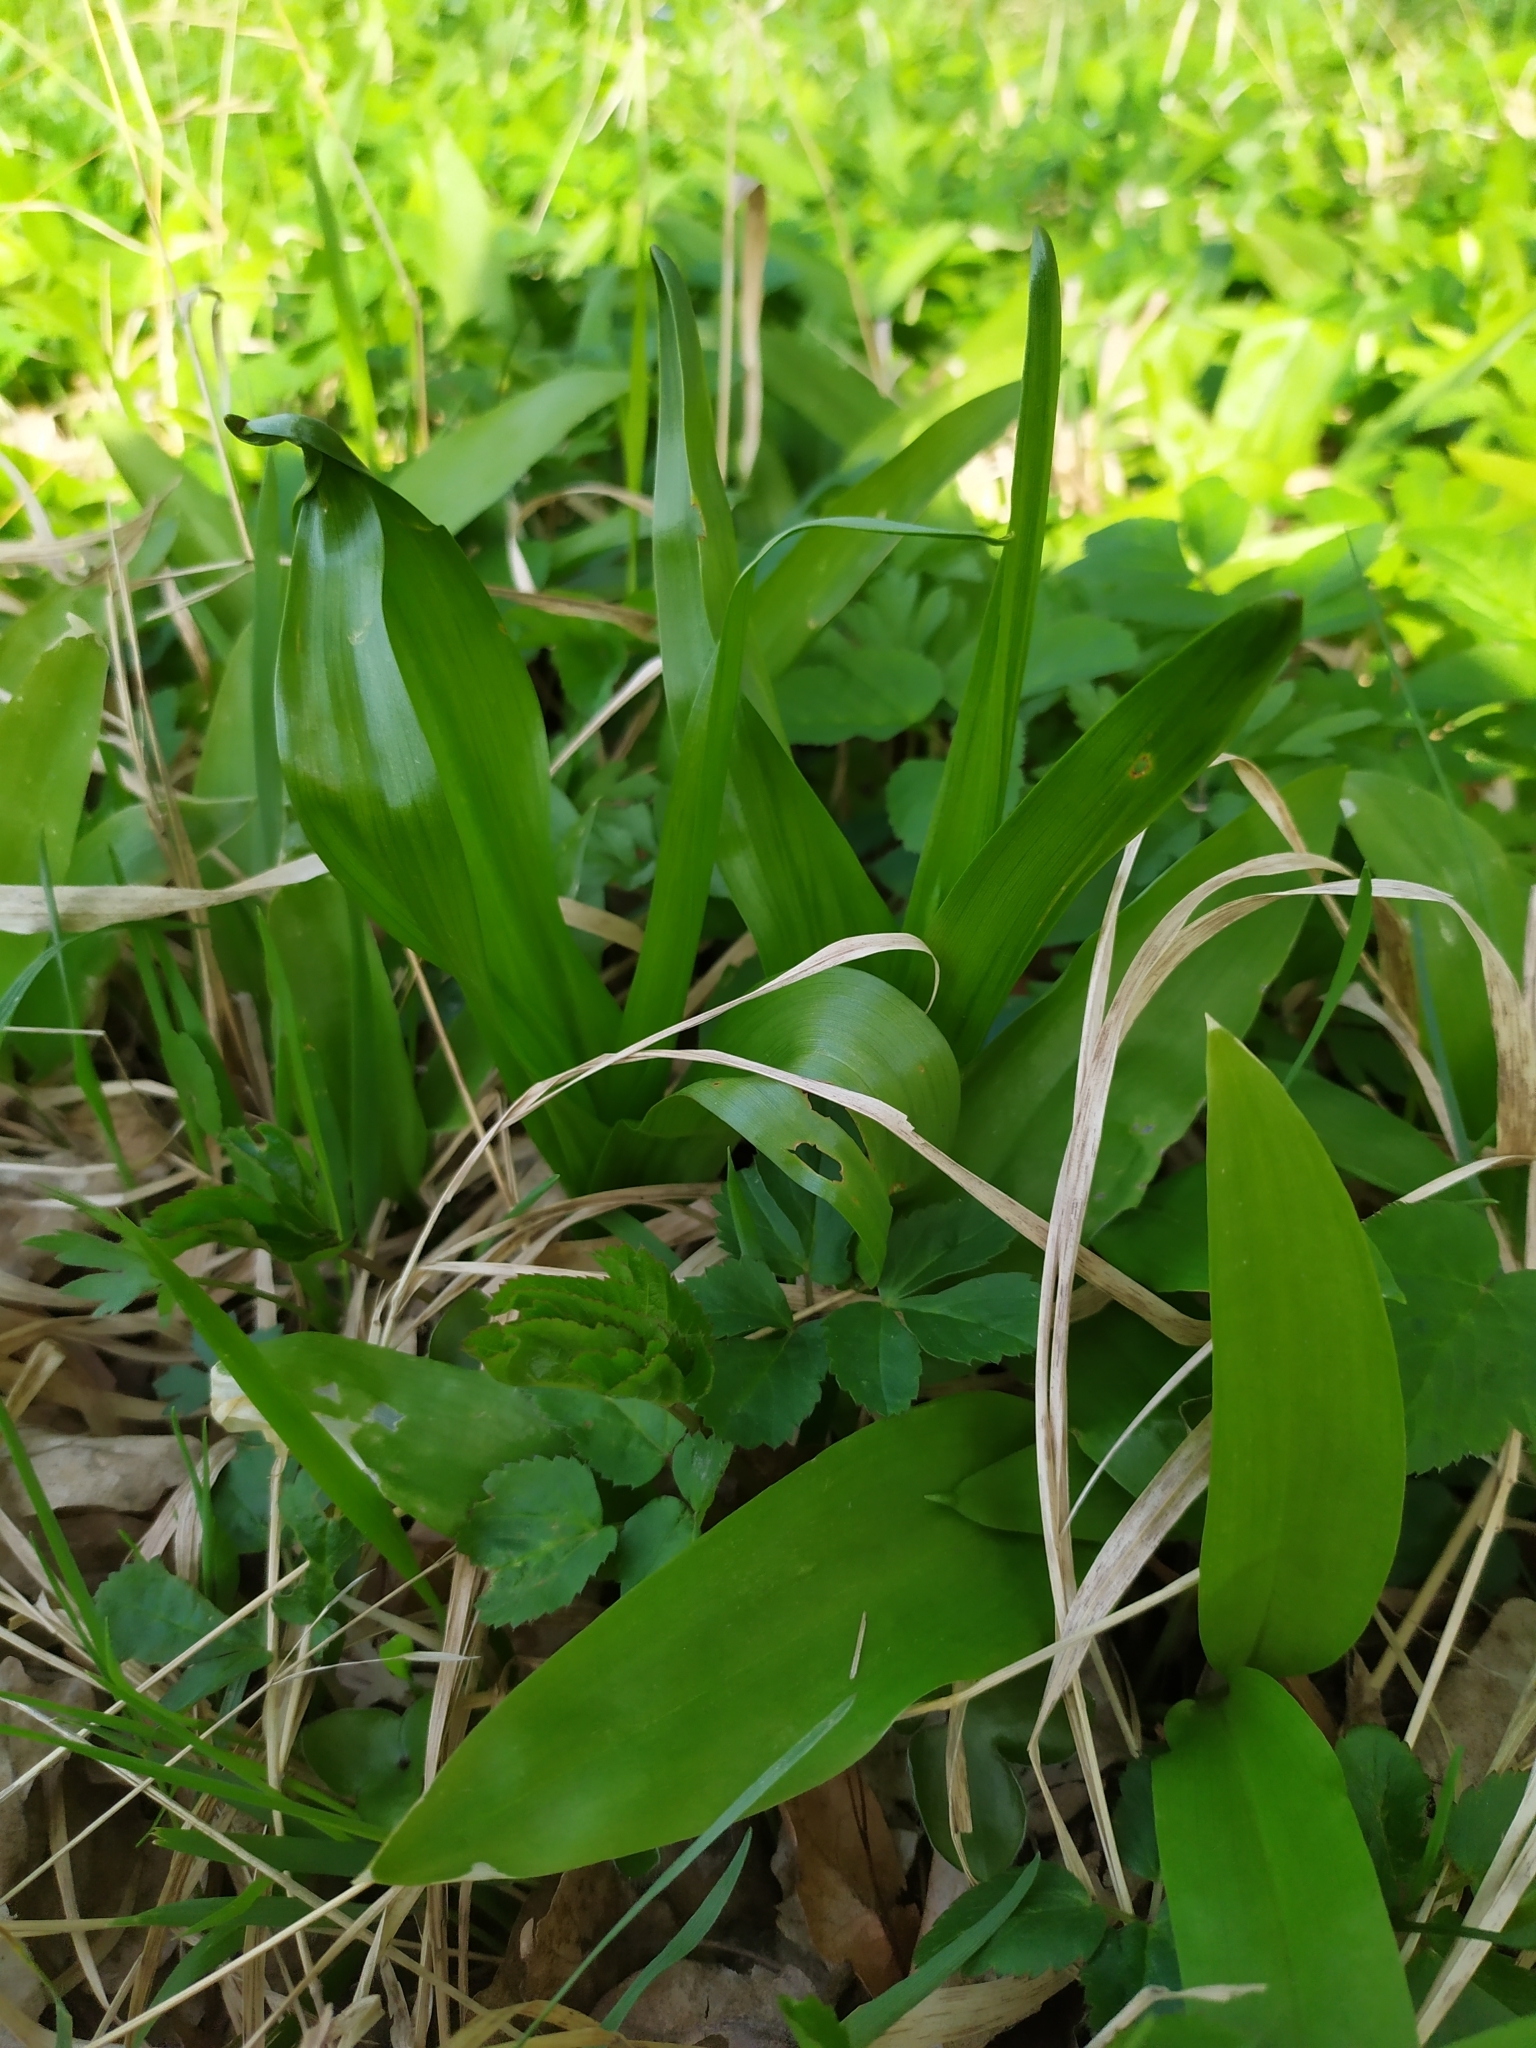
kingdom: Plantae
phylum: Tracheophyta
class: Liliopsida
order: Liliales
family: Colchicaceae
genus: Colchicum
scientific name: Colchicum autumnale
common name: Autumn crocus
